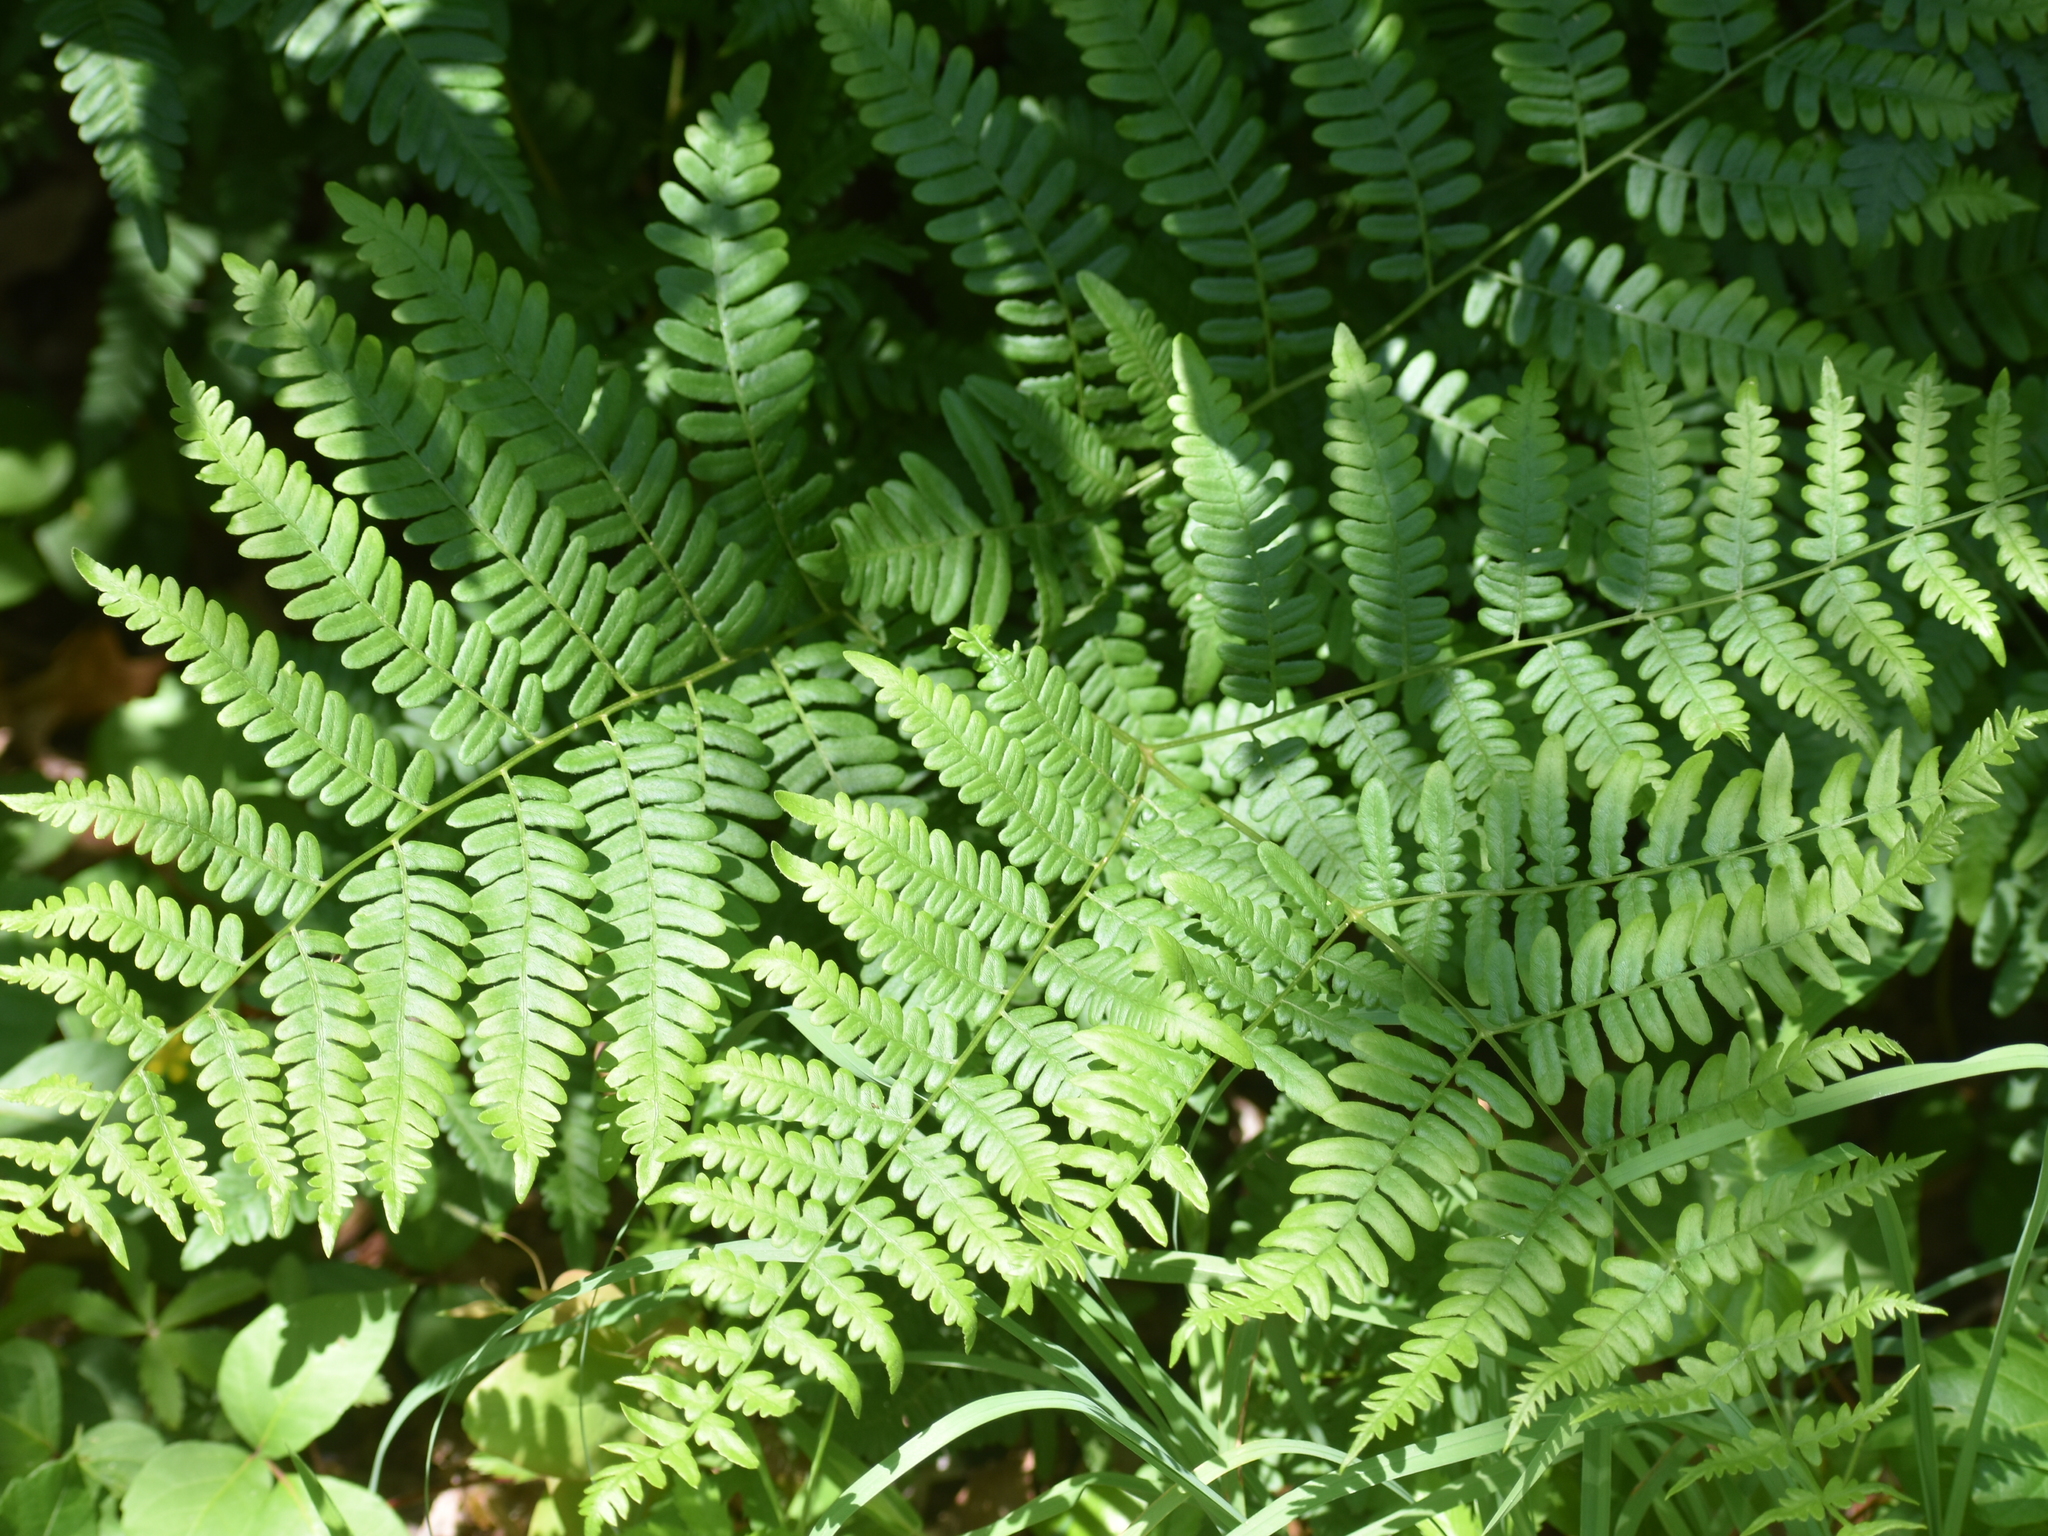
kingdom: Plantae
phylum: Tracheophyta
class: Polypodiopsida
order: Polypodiales
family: Dennstaedtiaceae
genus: Pteridium
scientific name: Pteridium aquilinum
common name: Bracken
